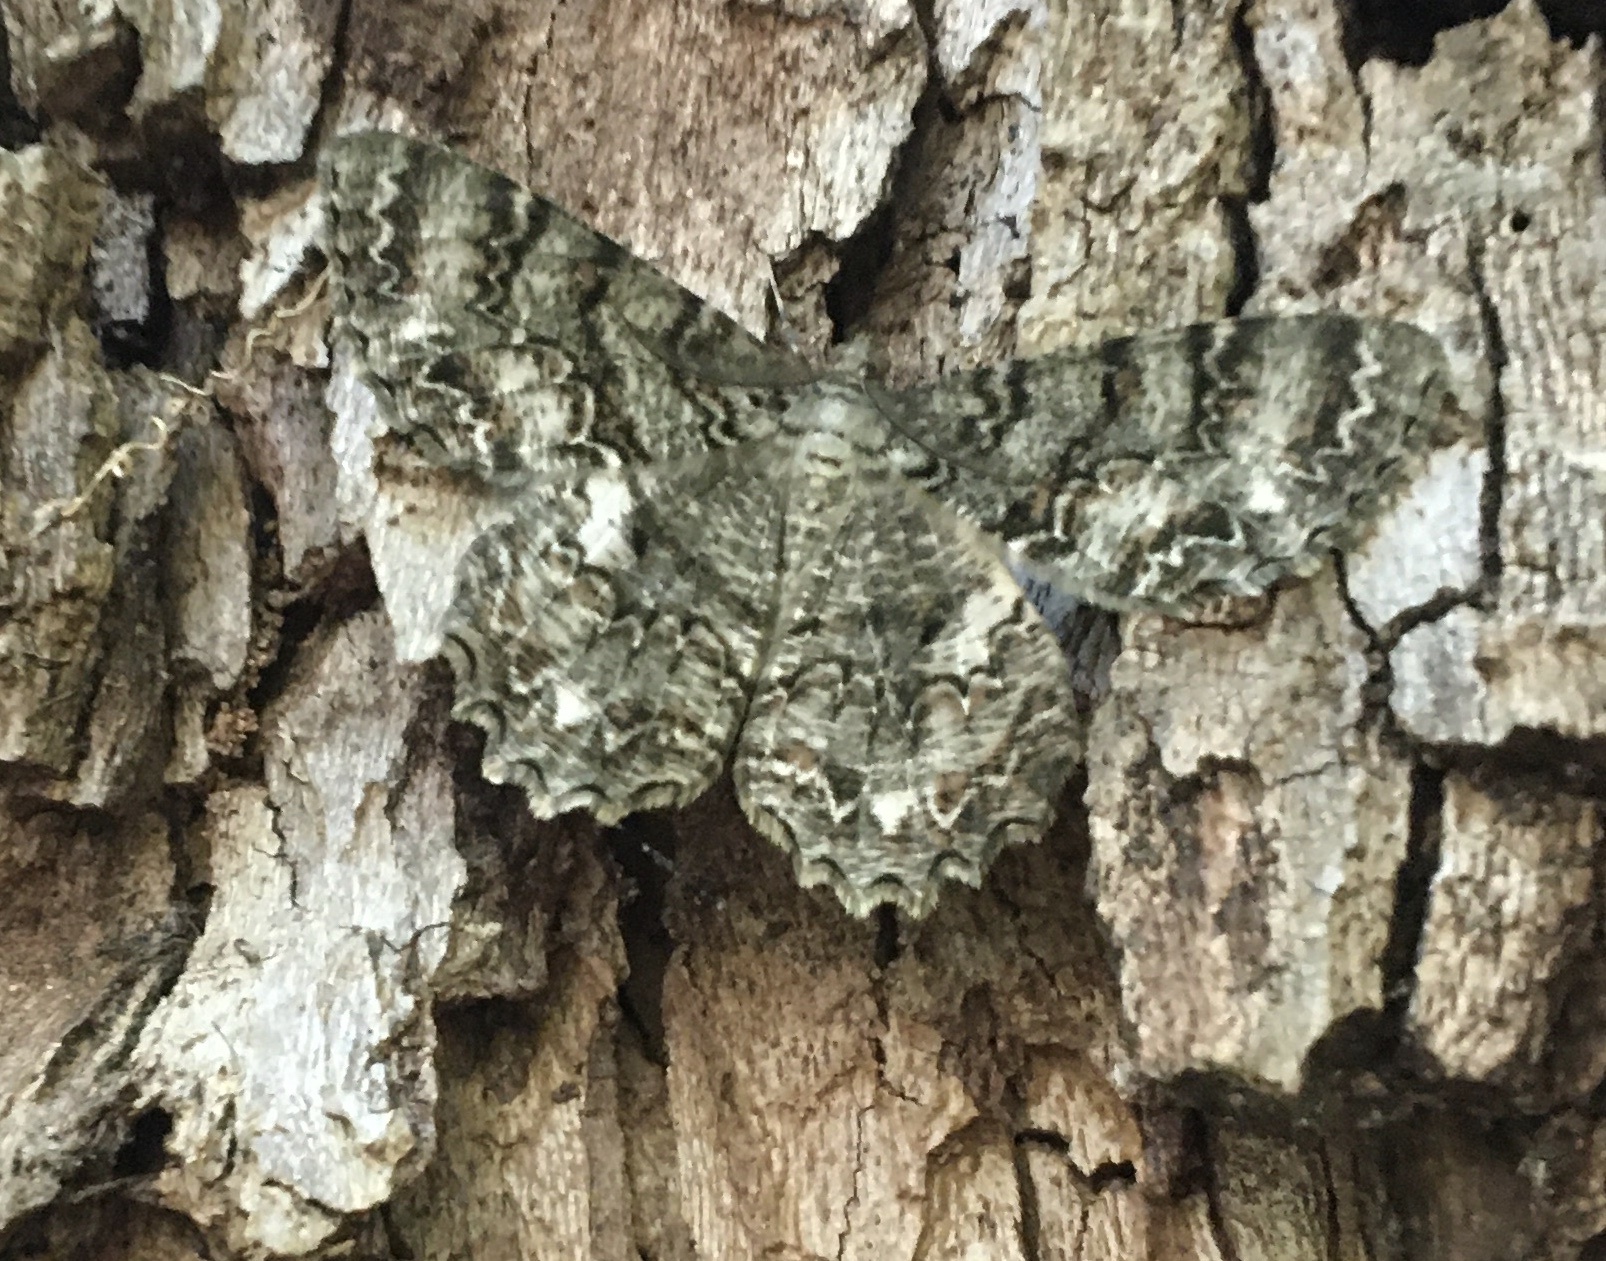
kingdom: Animalia
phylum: Arthropoda
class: Insecta
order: Lepidoptera
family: Geometridae
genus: Epimecis
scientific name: Epimecis hortaria
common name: Tulip-tree beauty
